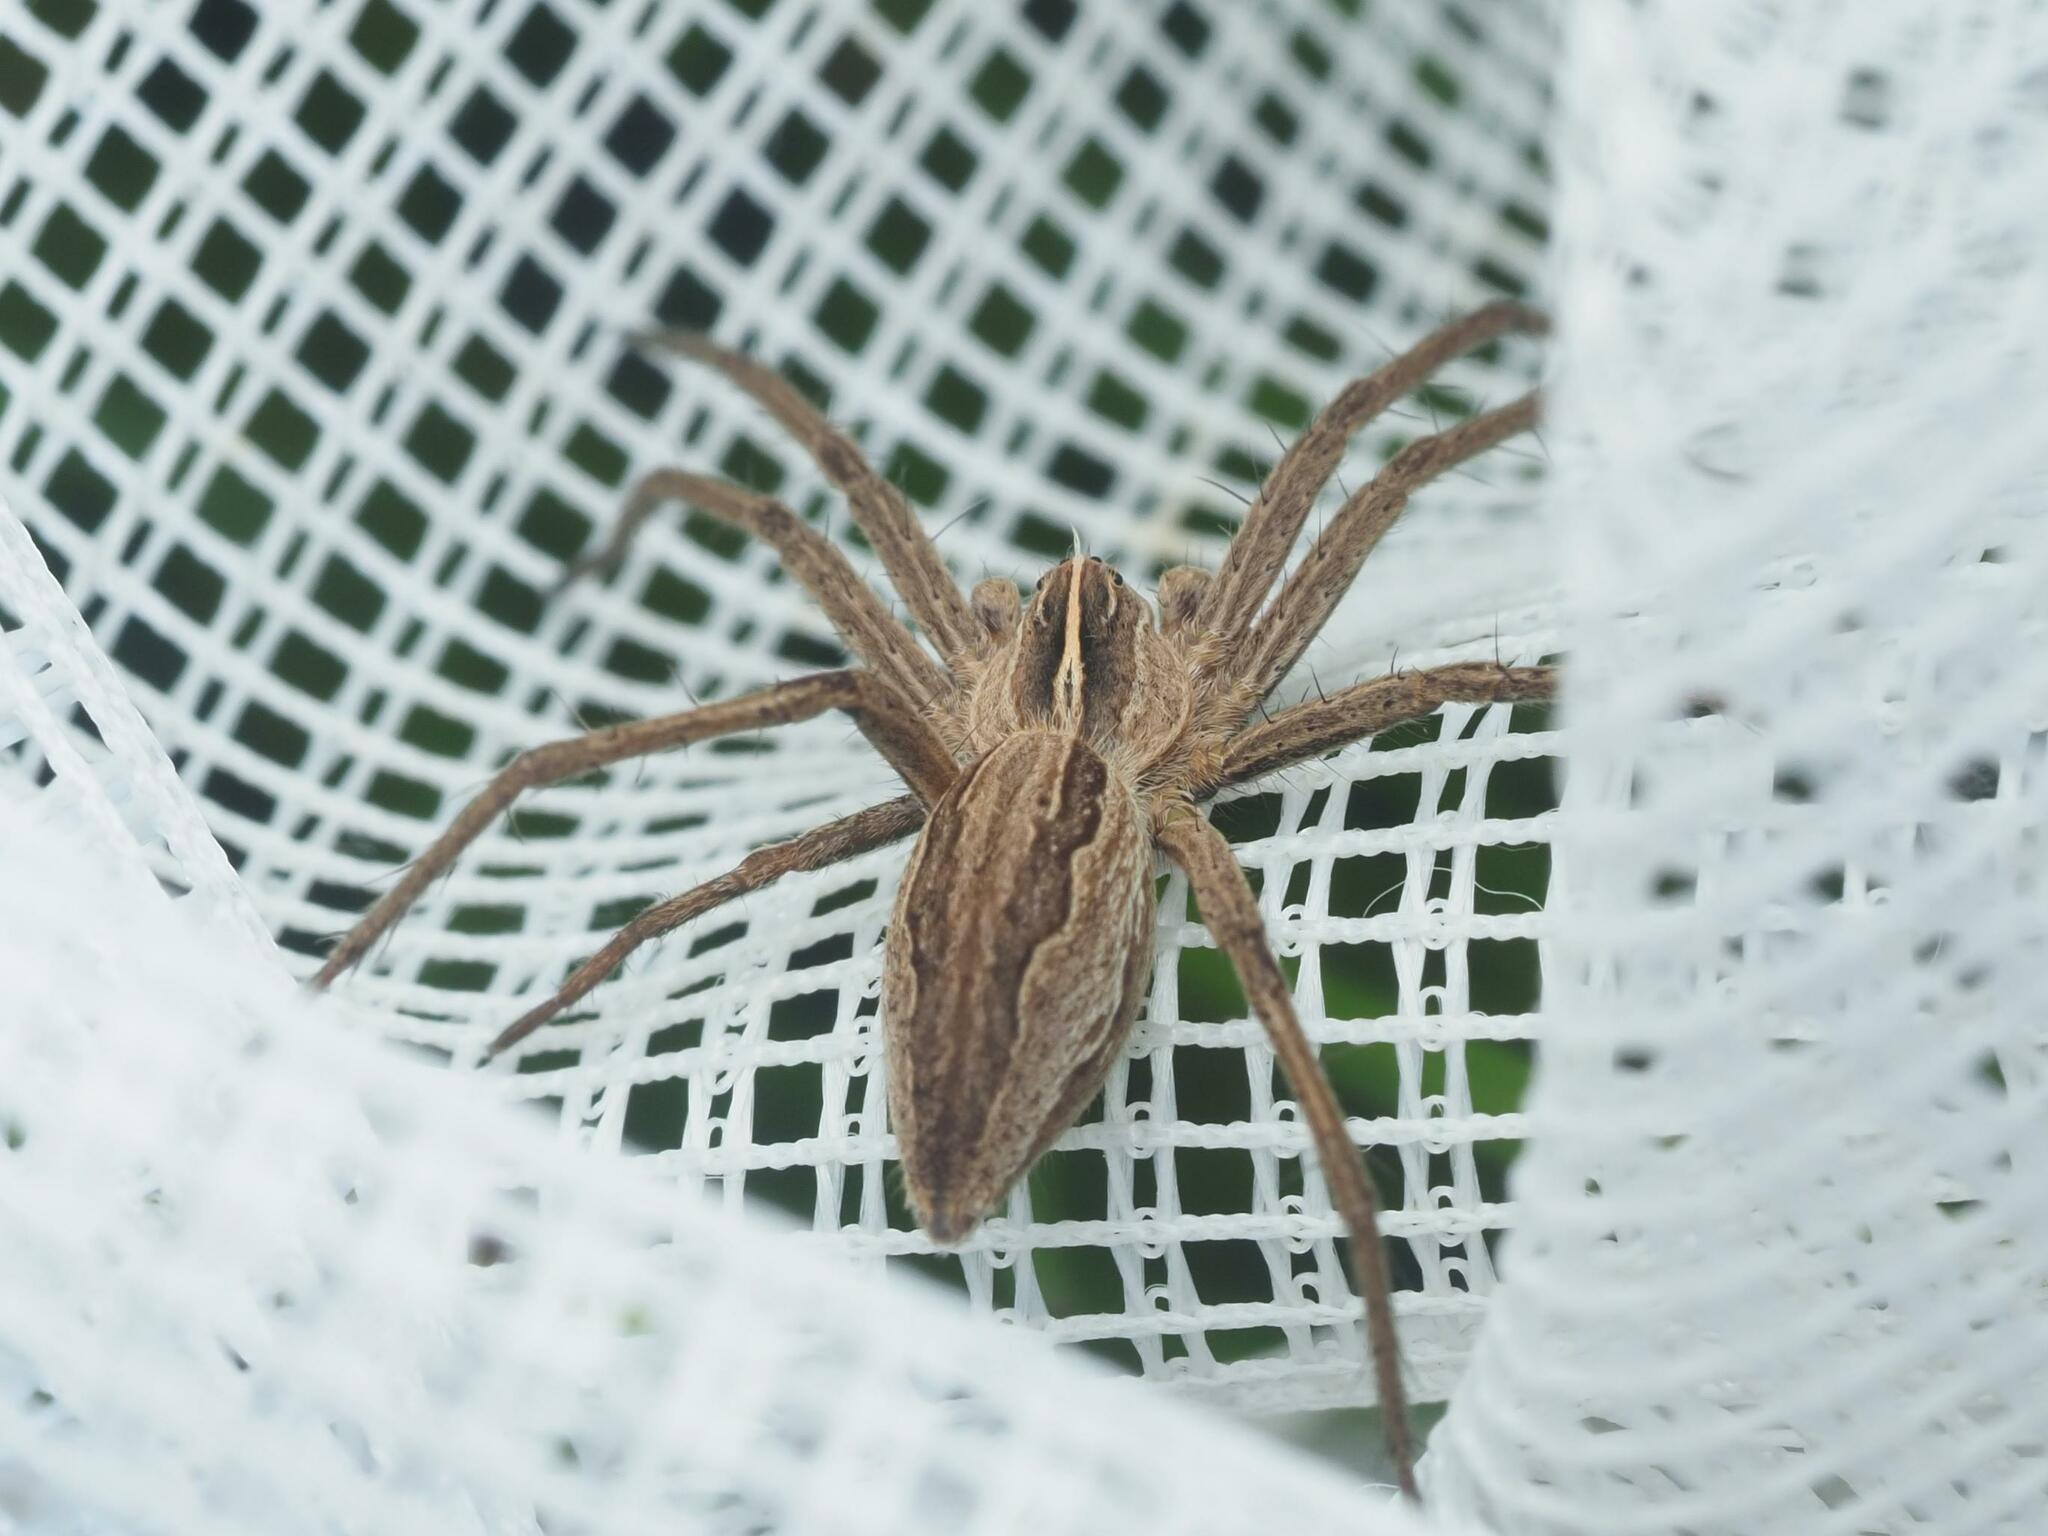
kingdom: Animalia
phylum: Arthropoda
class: Arachnida
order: Araneae
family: Pisauridae
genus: Pisaura
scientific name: Pisaura mirabilis
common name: Tent spider
